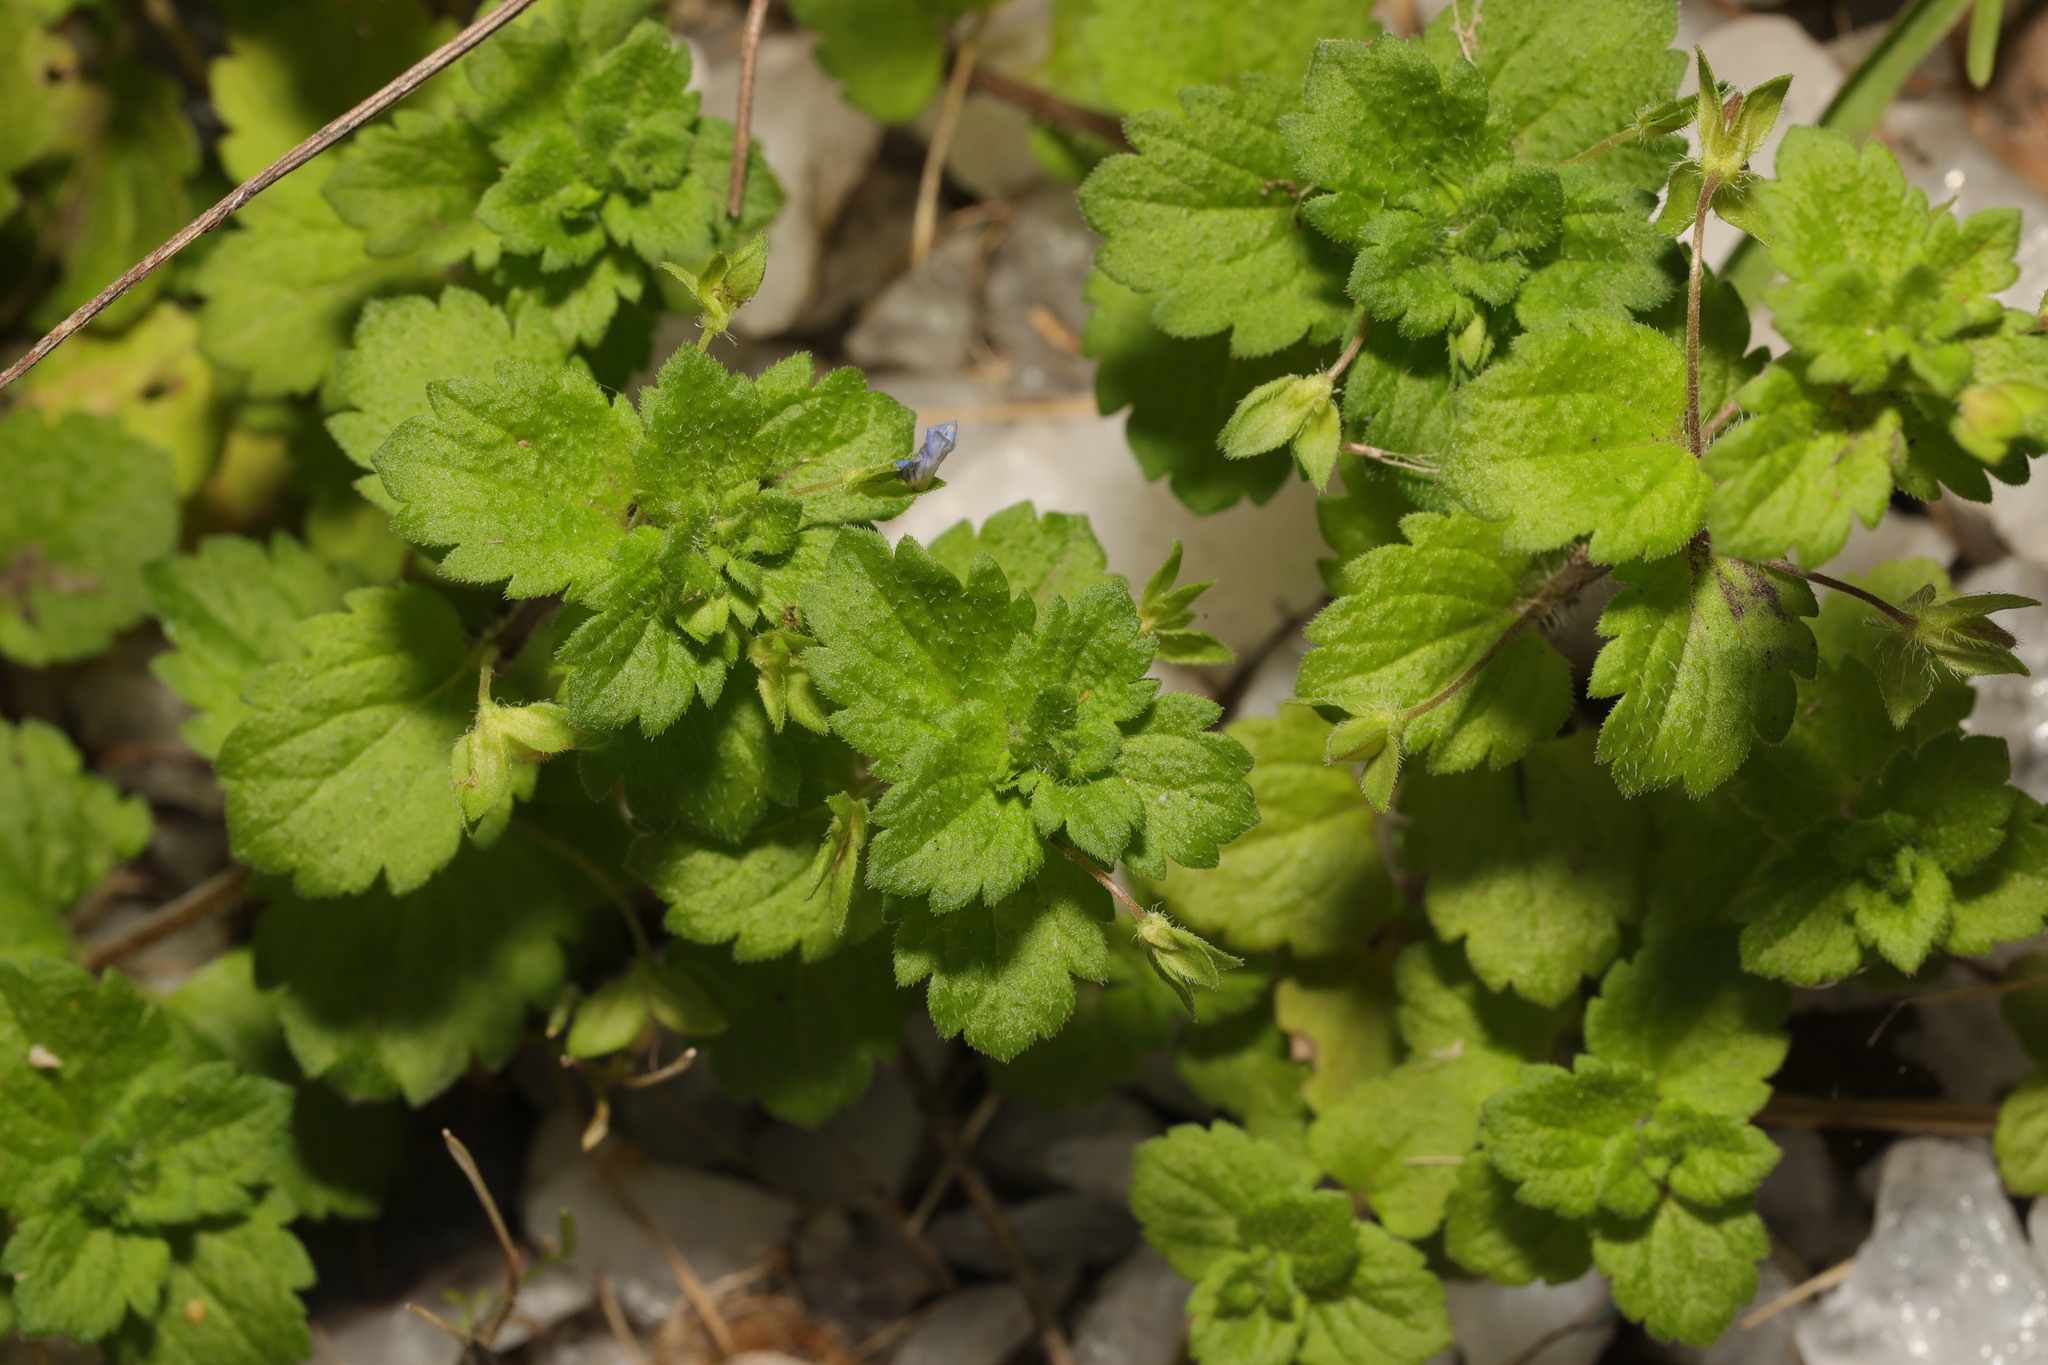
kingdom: Plantae
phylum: Tracheophyta
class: Magnoliopsida
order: Lamiales
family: Plantaginaceae
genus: Veronica
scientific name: Veronica persica
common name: Common field-speedwell
